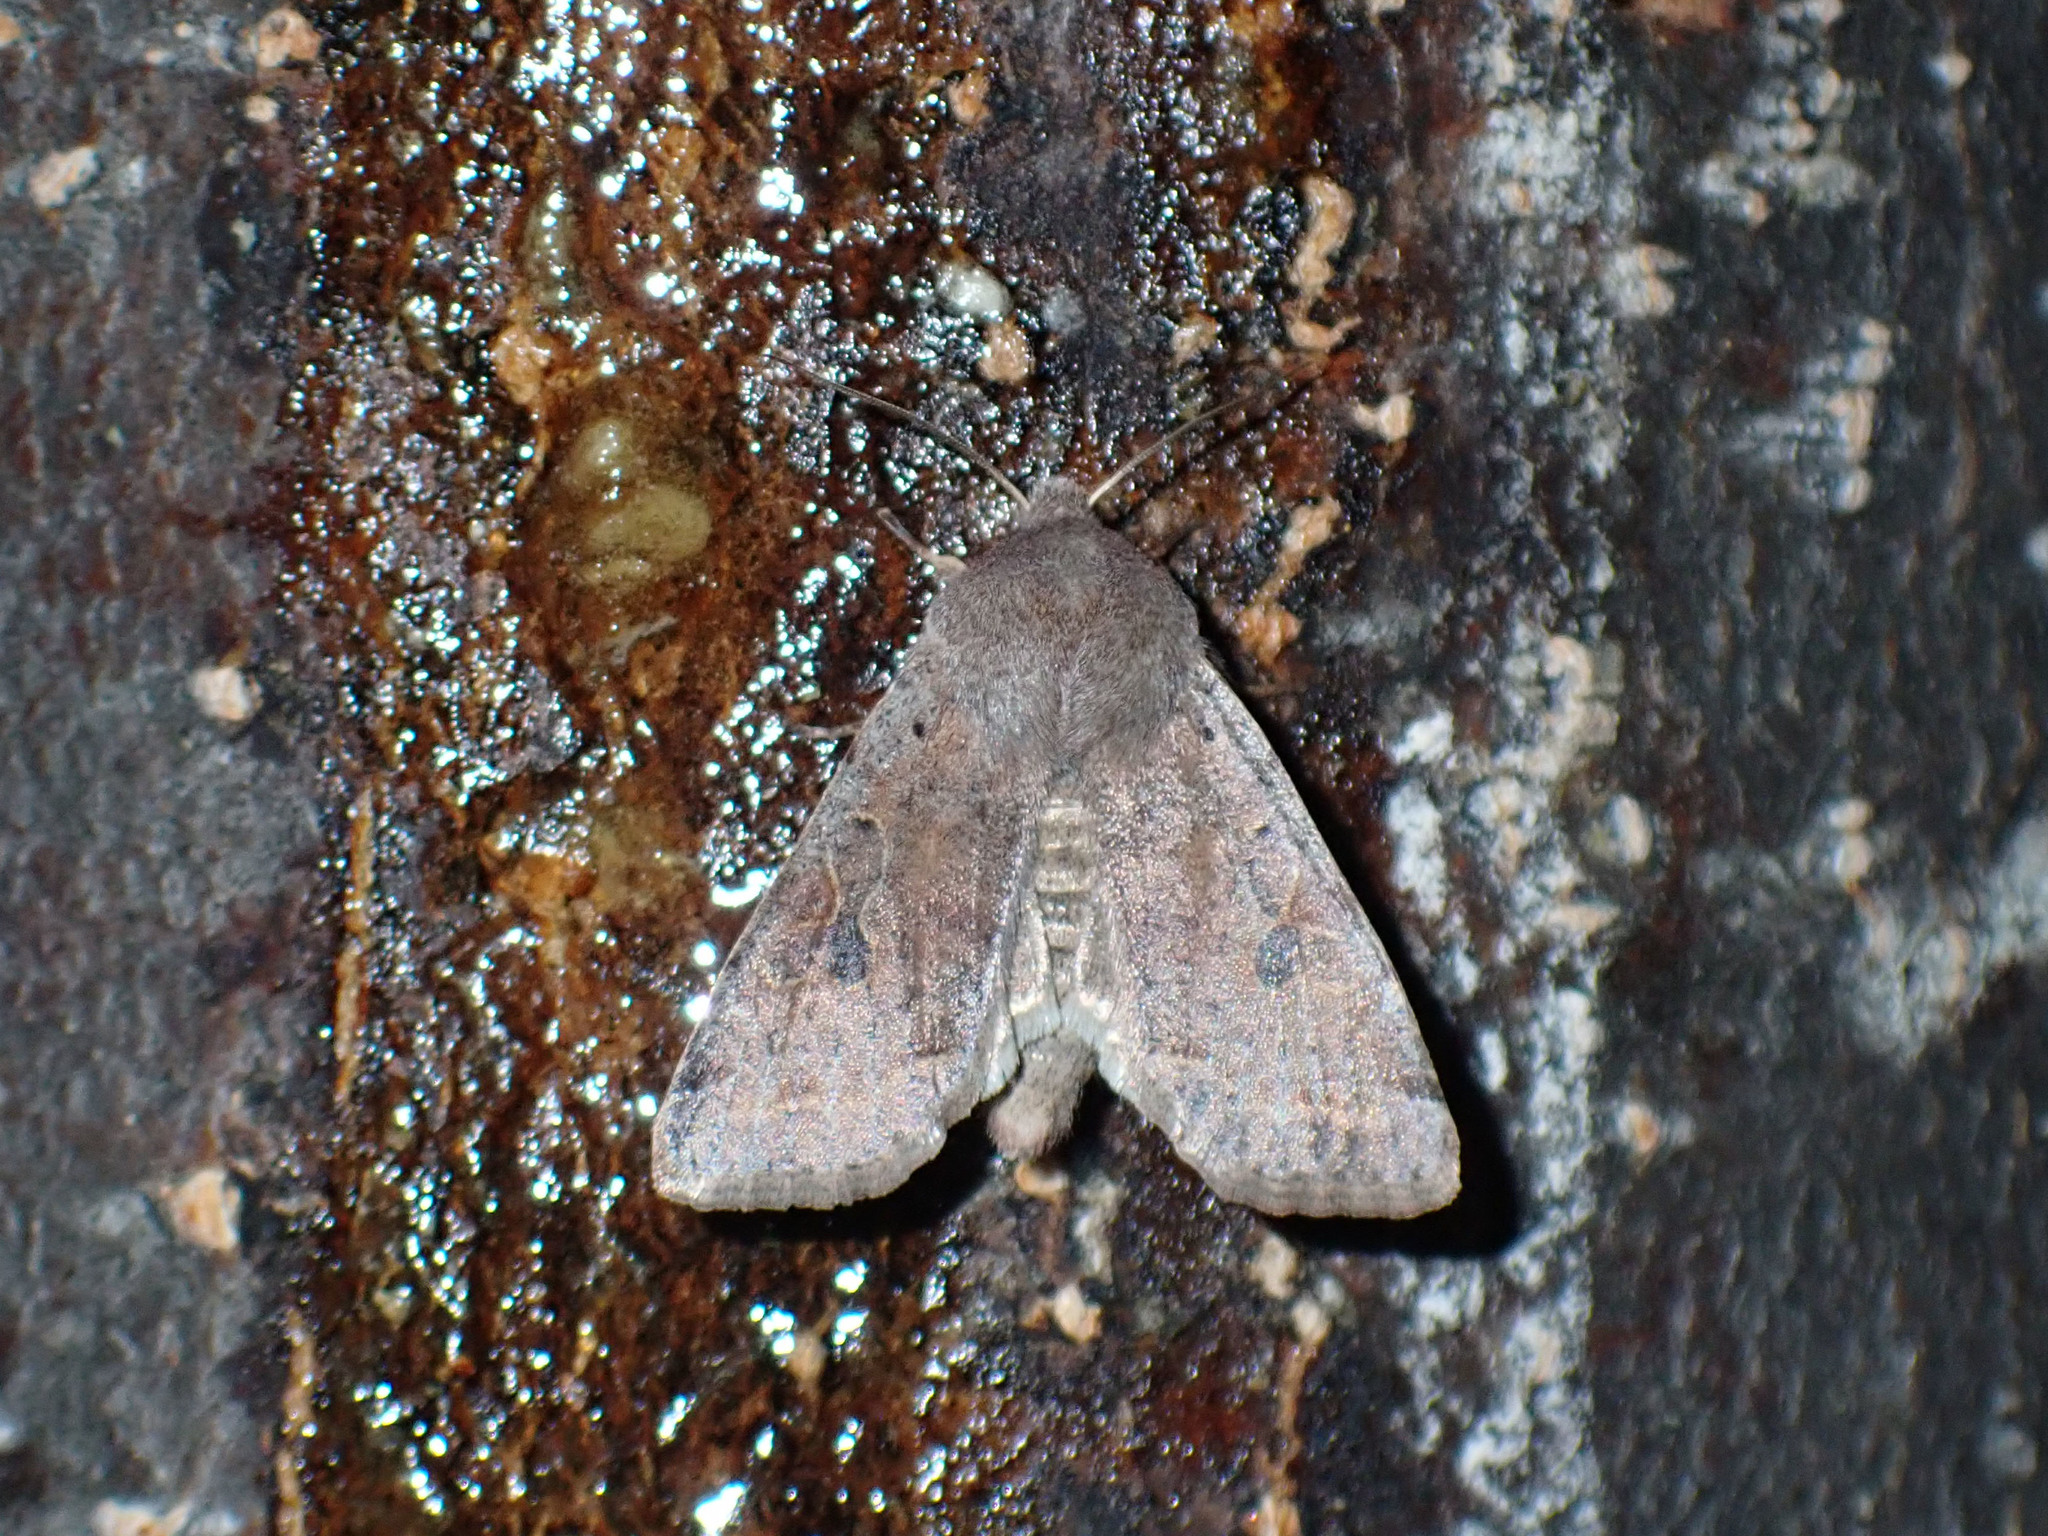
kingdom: Animalia
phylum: Arthropoda
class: Insecta
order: Lepidoptera
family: Noctuidae
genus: Orthosia
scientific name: Orthosia hibisci
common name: Green fruitworm
